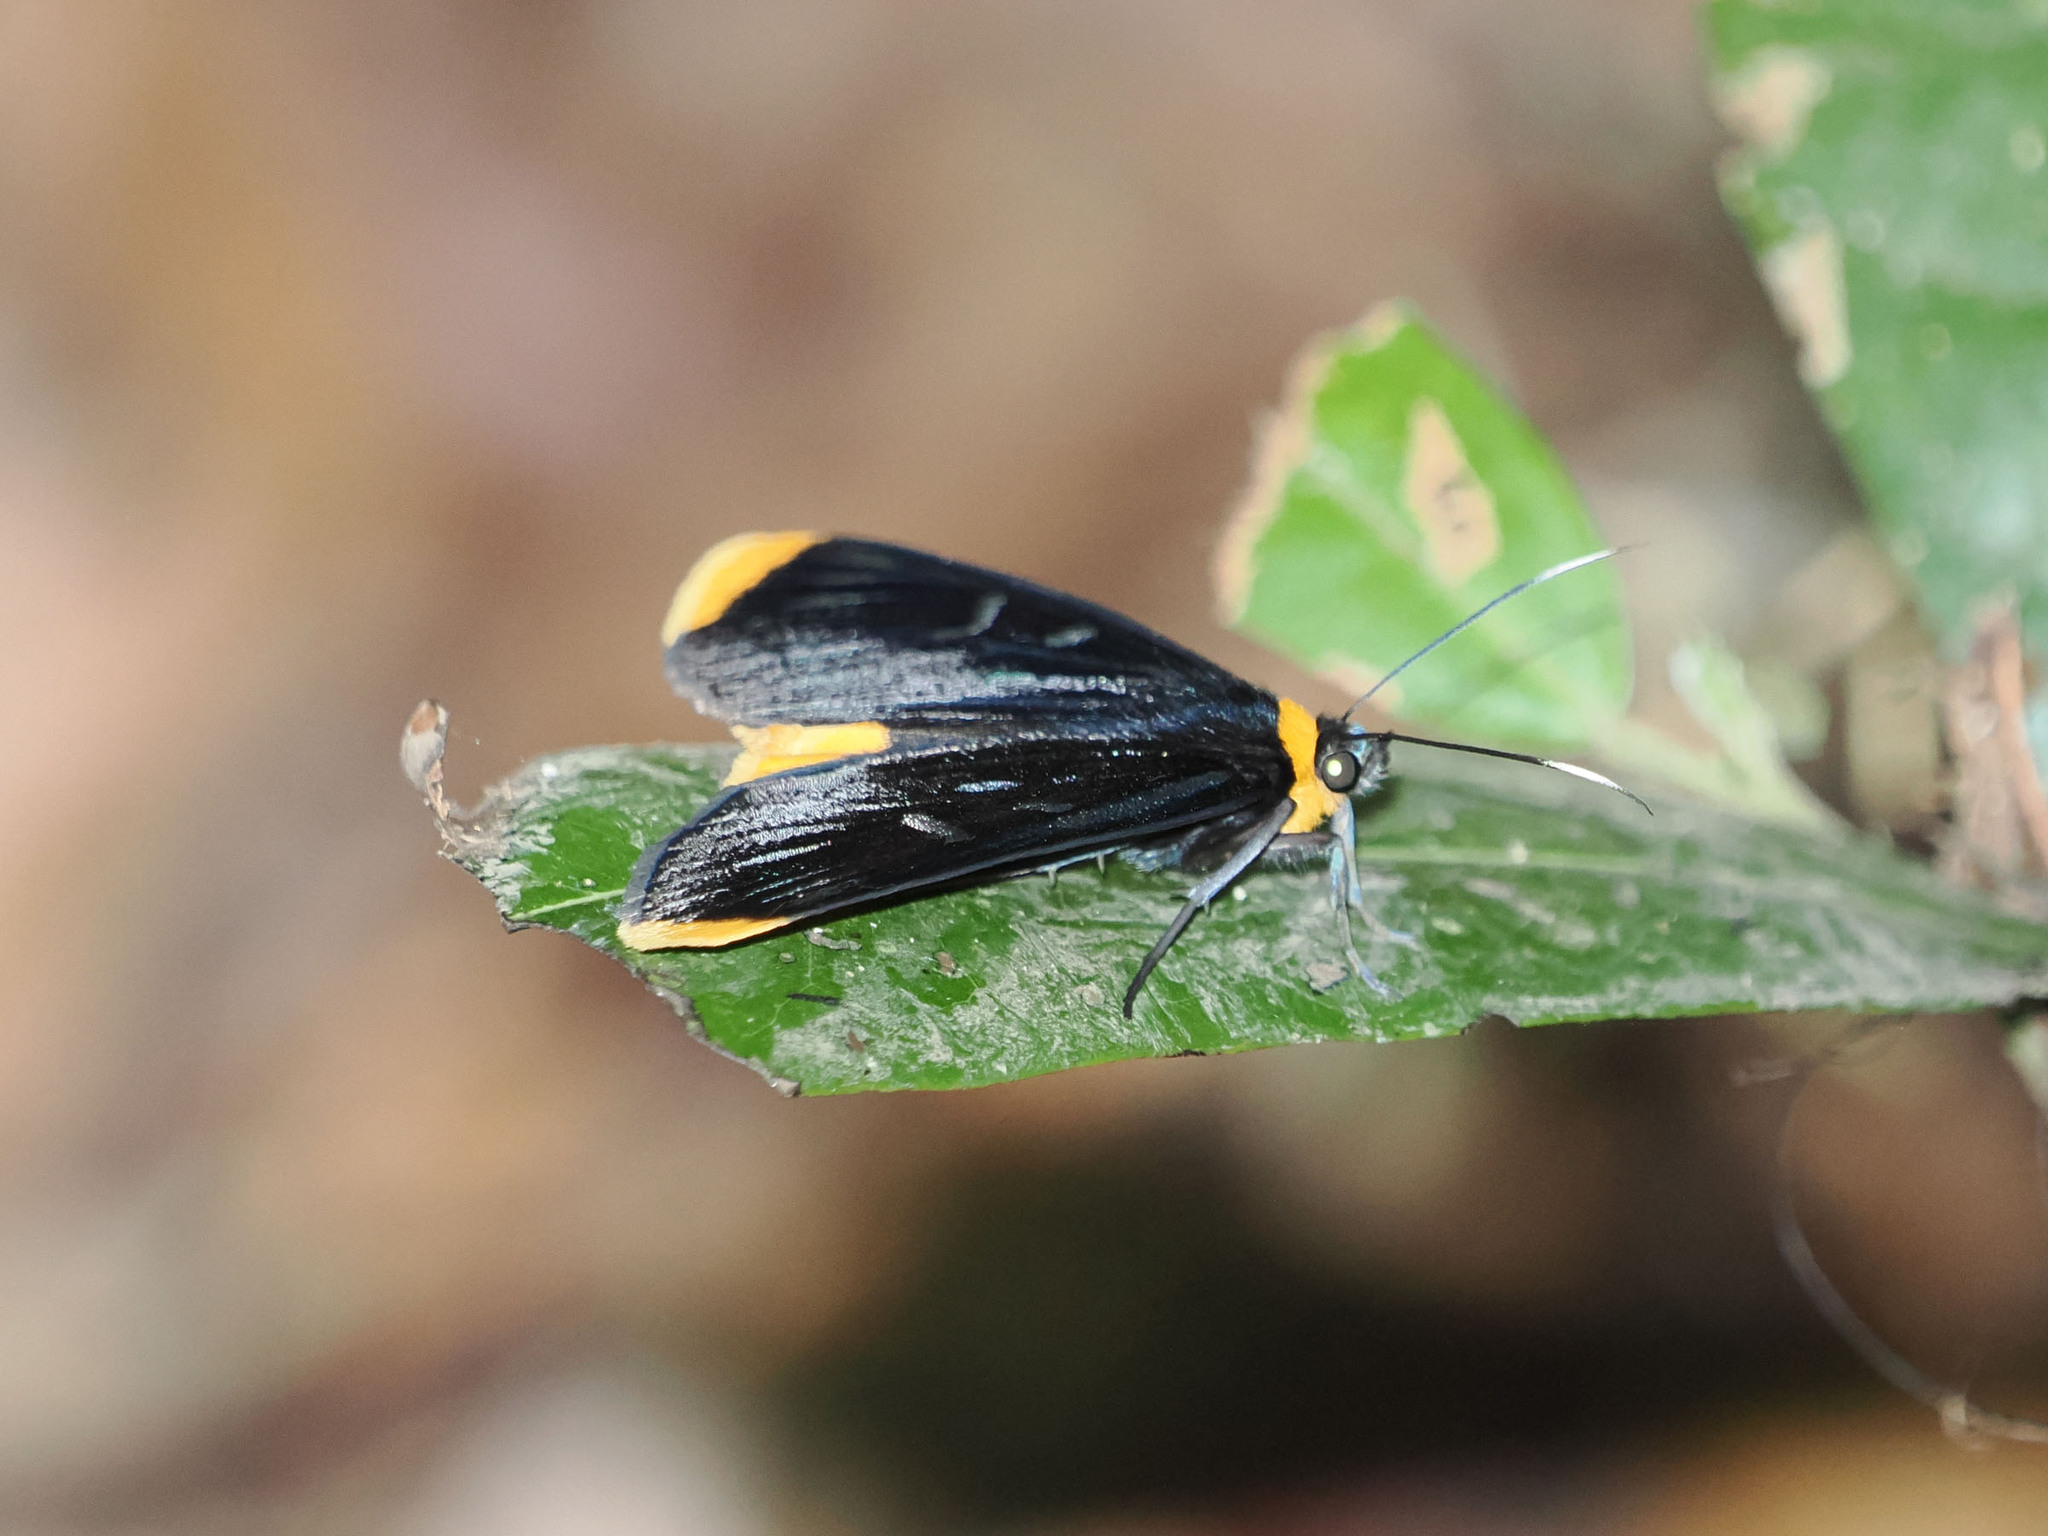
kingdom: Animalia
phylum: Arthropoda
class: Insecta
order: Lepidoptera
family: Noctuidae
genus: Ophthalmis
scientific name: Ophthalmis lincea
